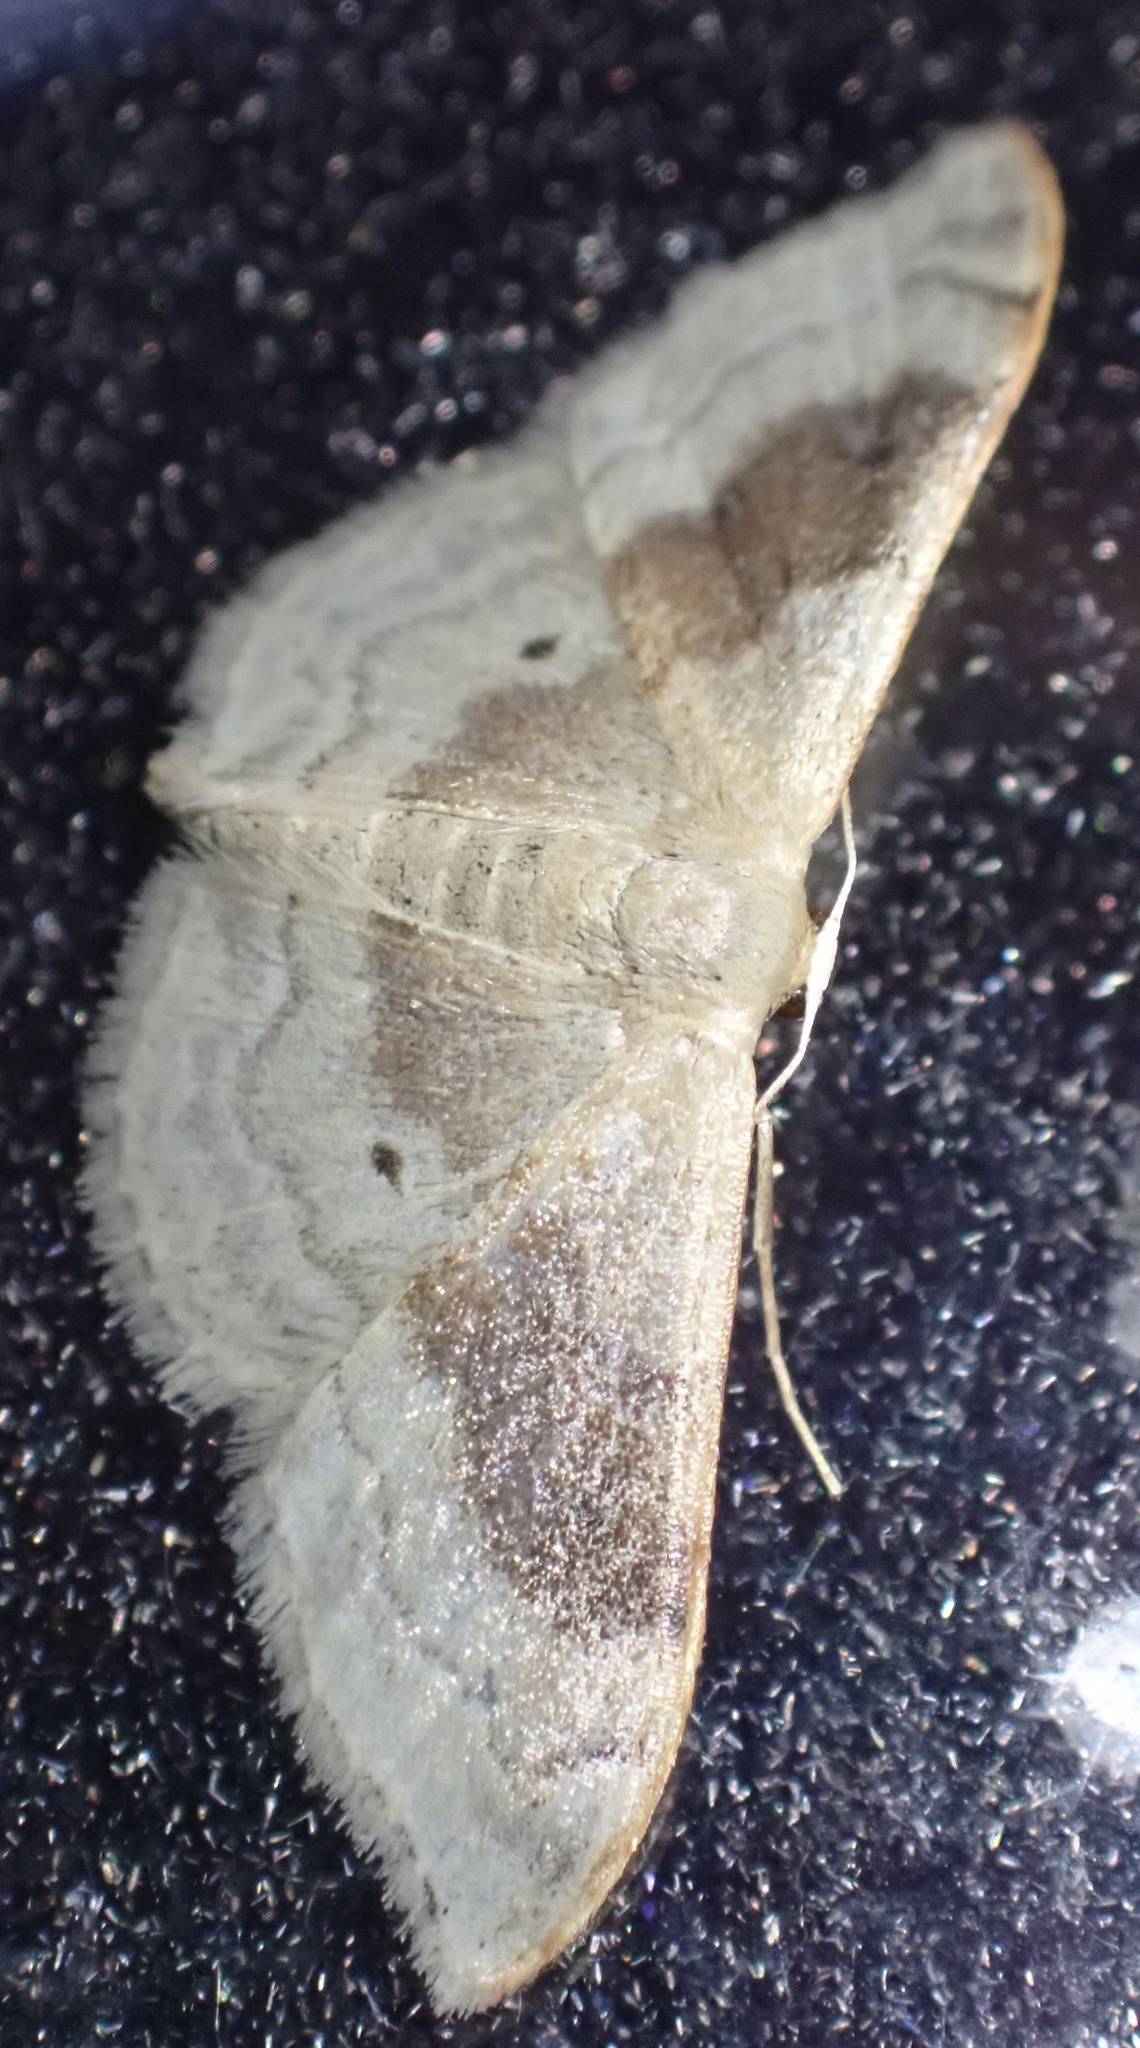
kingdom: Animalia
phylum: Arthropoda
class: Insecta
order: Lepidoptera
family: Geometridae
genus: Idaea
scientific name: Idaea degeneraria
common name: Portland ribbon wave
